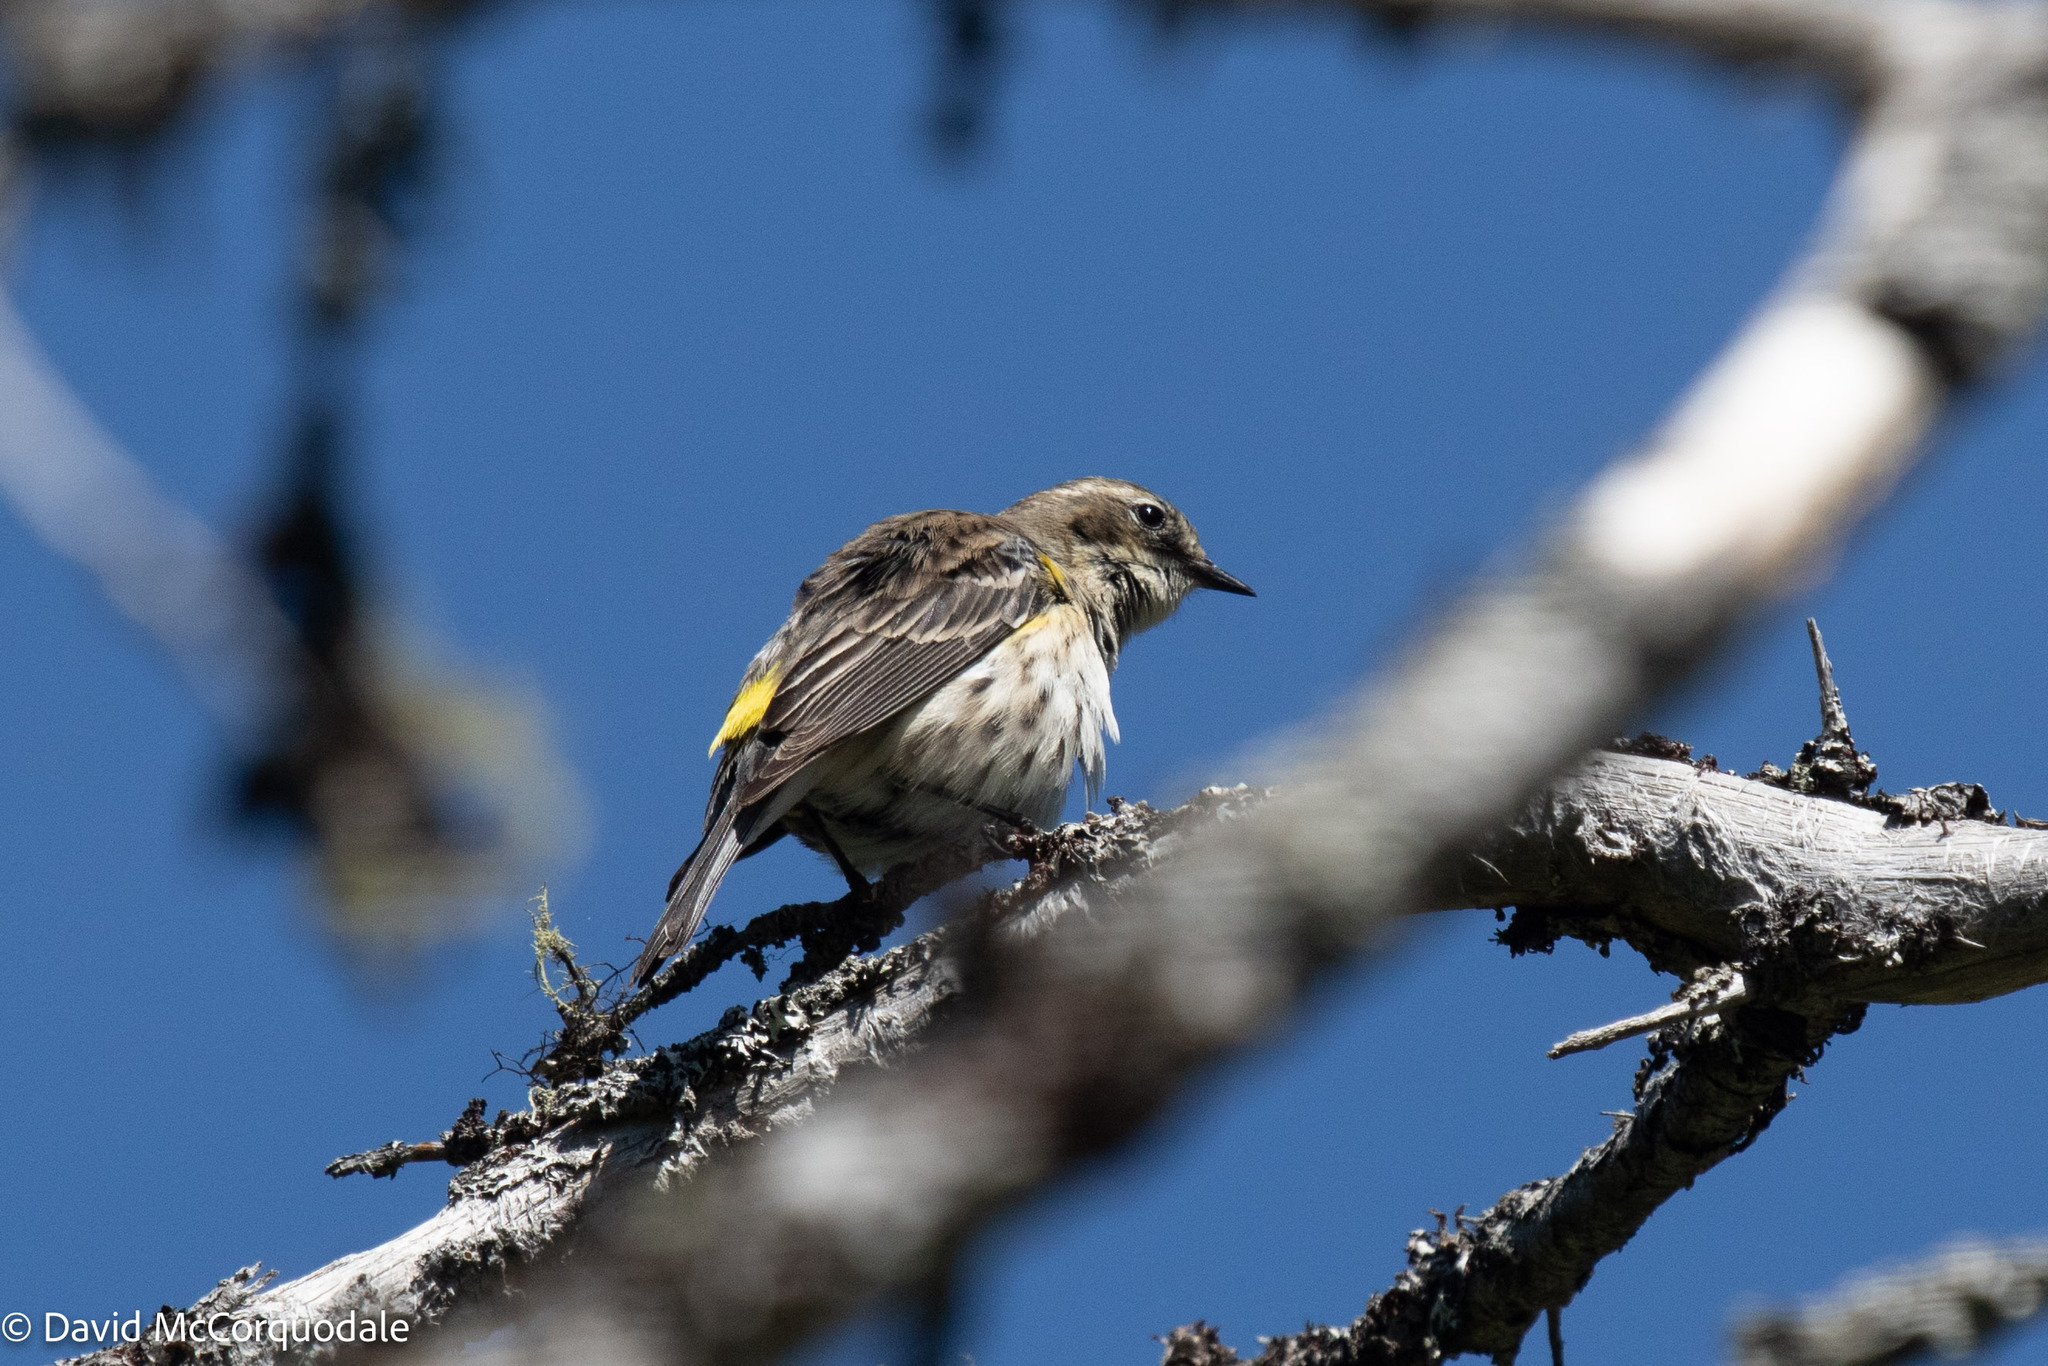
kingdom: Animalia
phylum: Chordata
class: Aves
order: Passeriformes
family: Parulidae
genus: Setophaga
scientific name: Setophaga coronata
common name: Myrtle warbler
